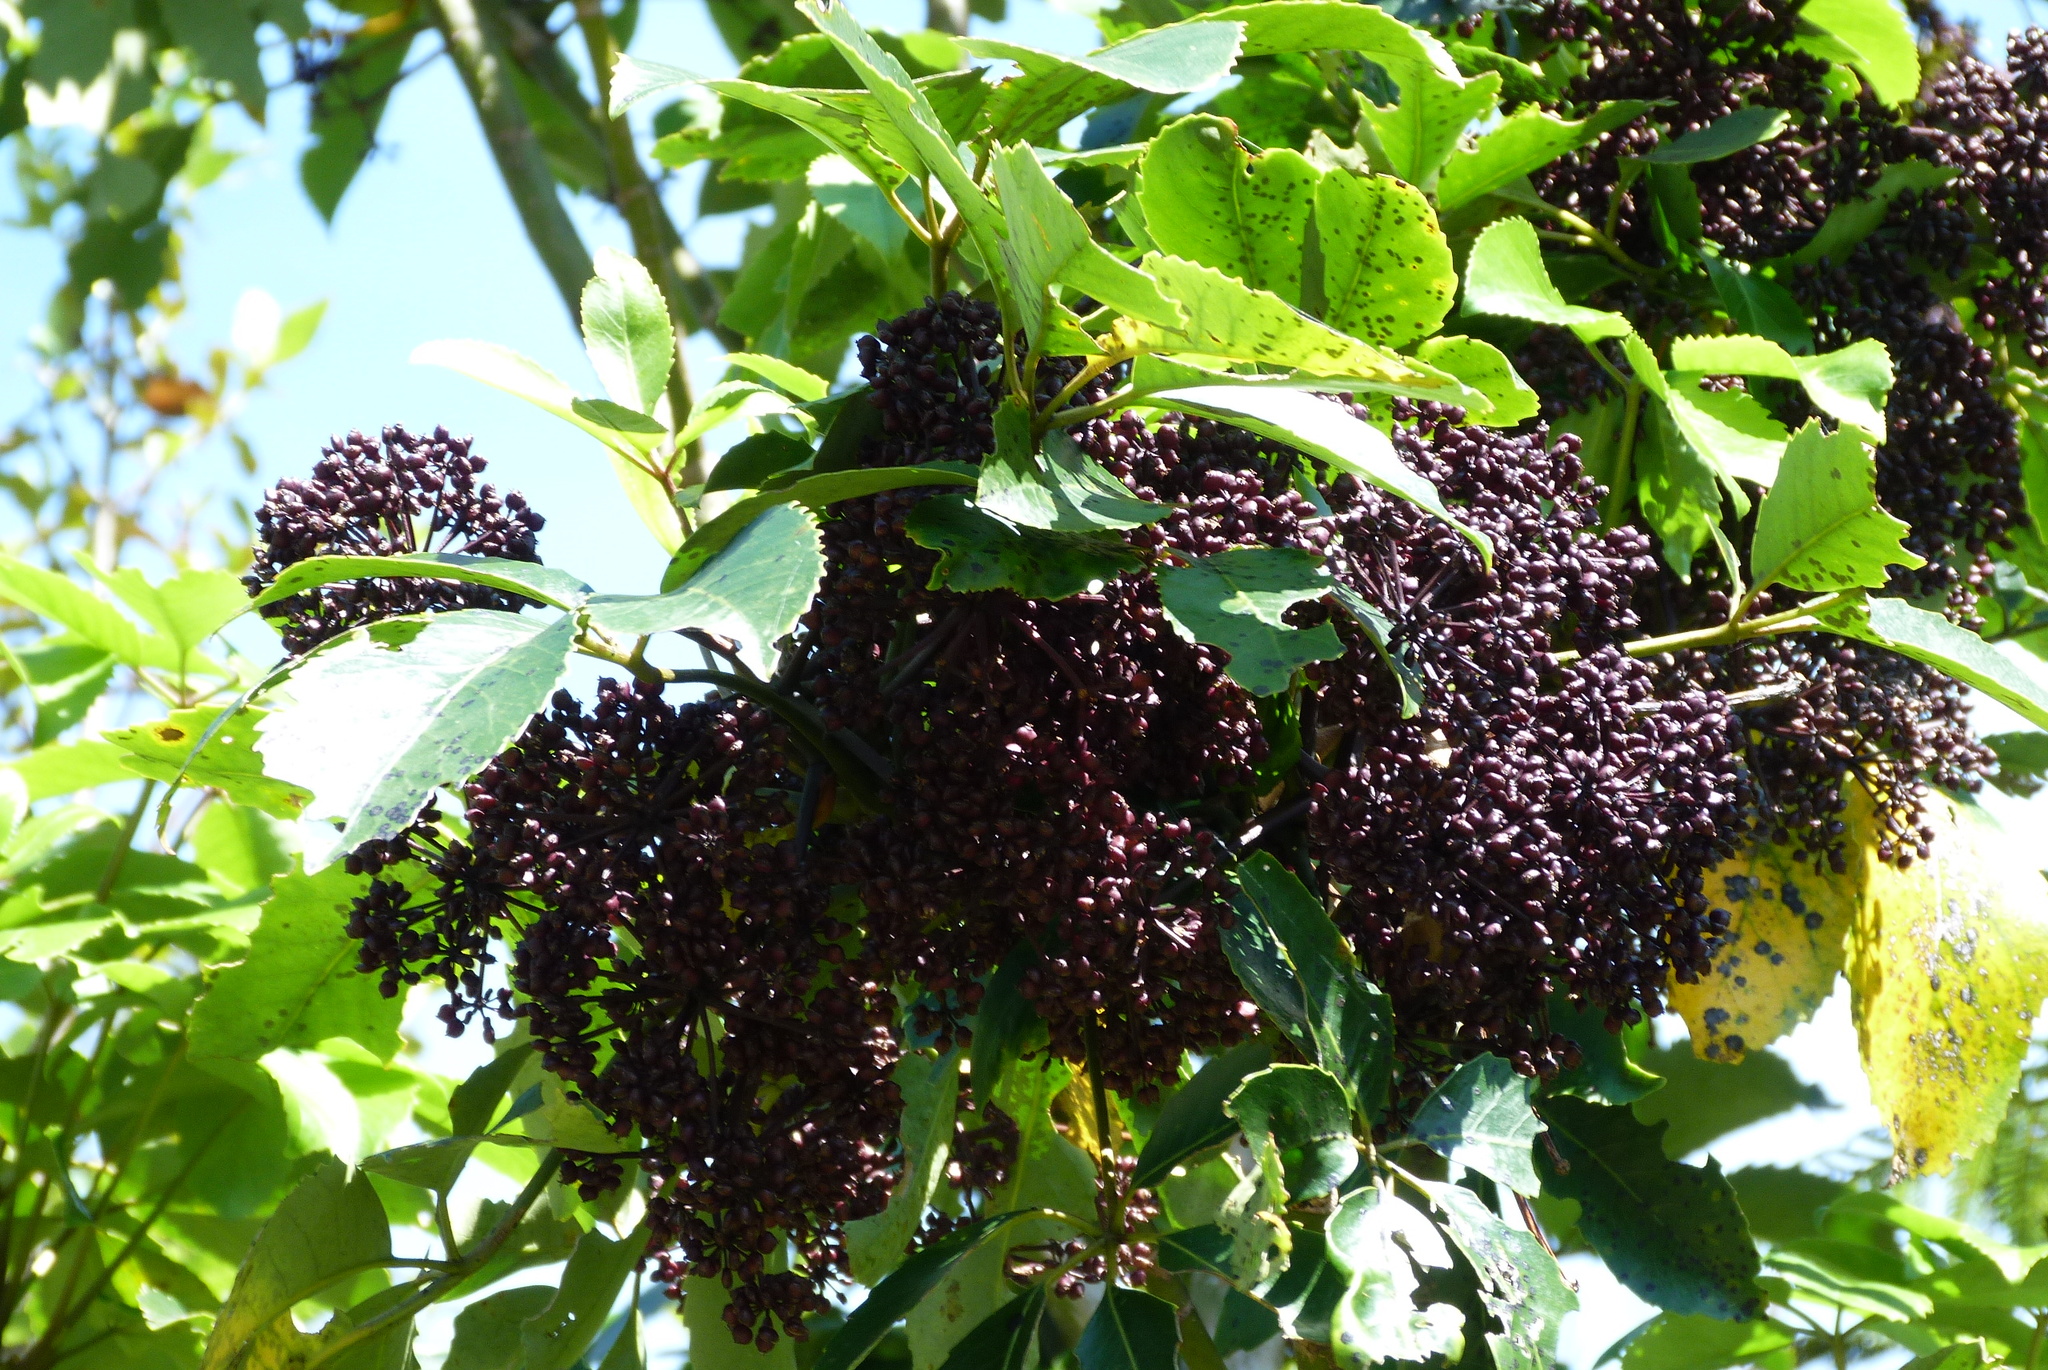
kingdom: Plantae
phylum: Tracheophyta
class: Magnoliopsida
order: Apiales
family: Araliaceae
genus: Neopanax
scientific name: Neopanax arboreus
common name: Five-fingers
